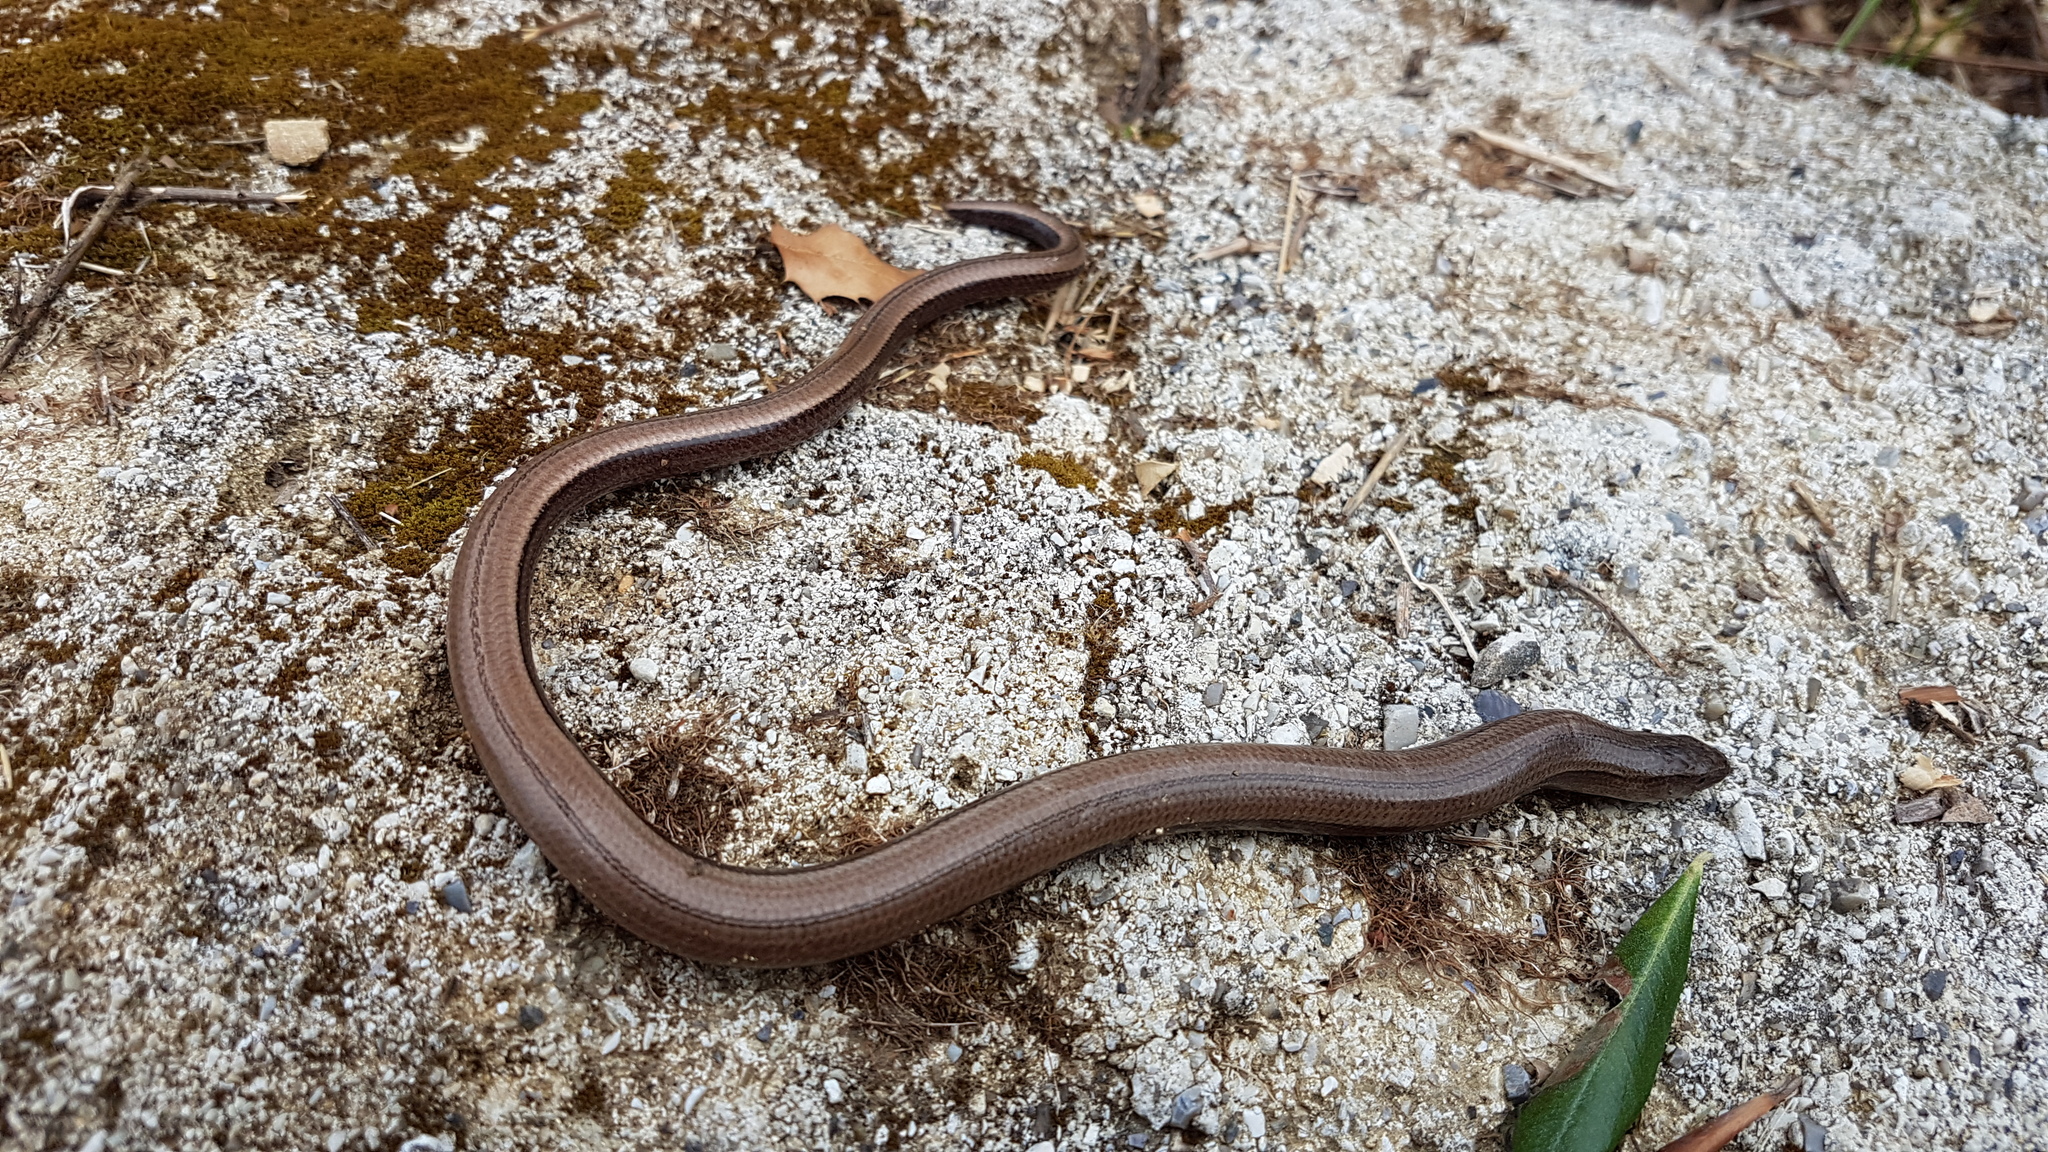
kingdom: Animalia
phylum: Chordata
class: Squamata
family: Anguidae
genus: Anguis
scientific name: Anguis graeca
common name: Greek slow worm
